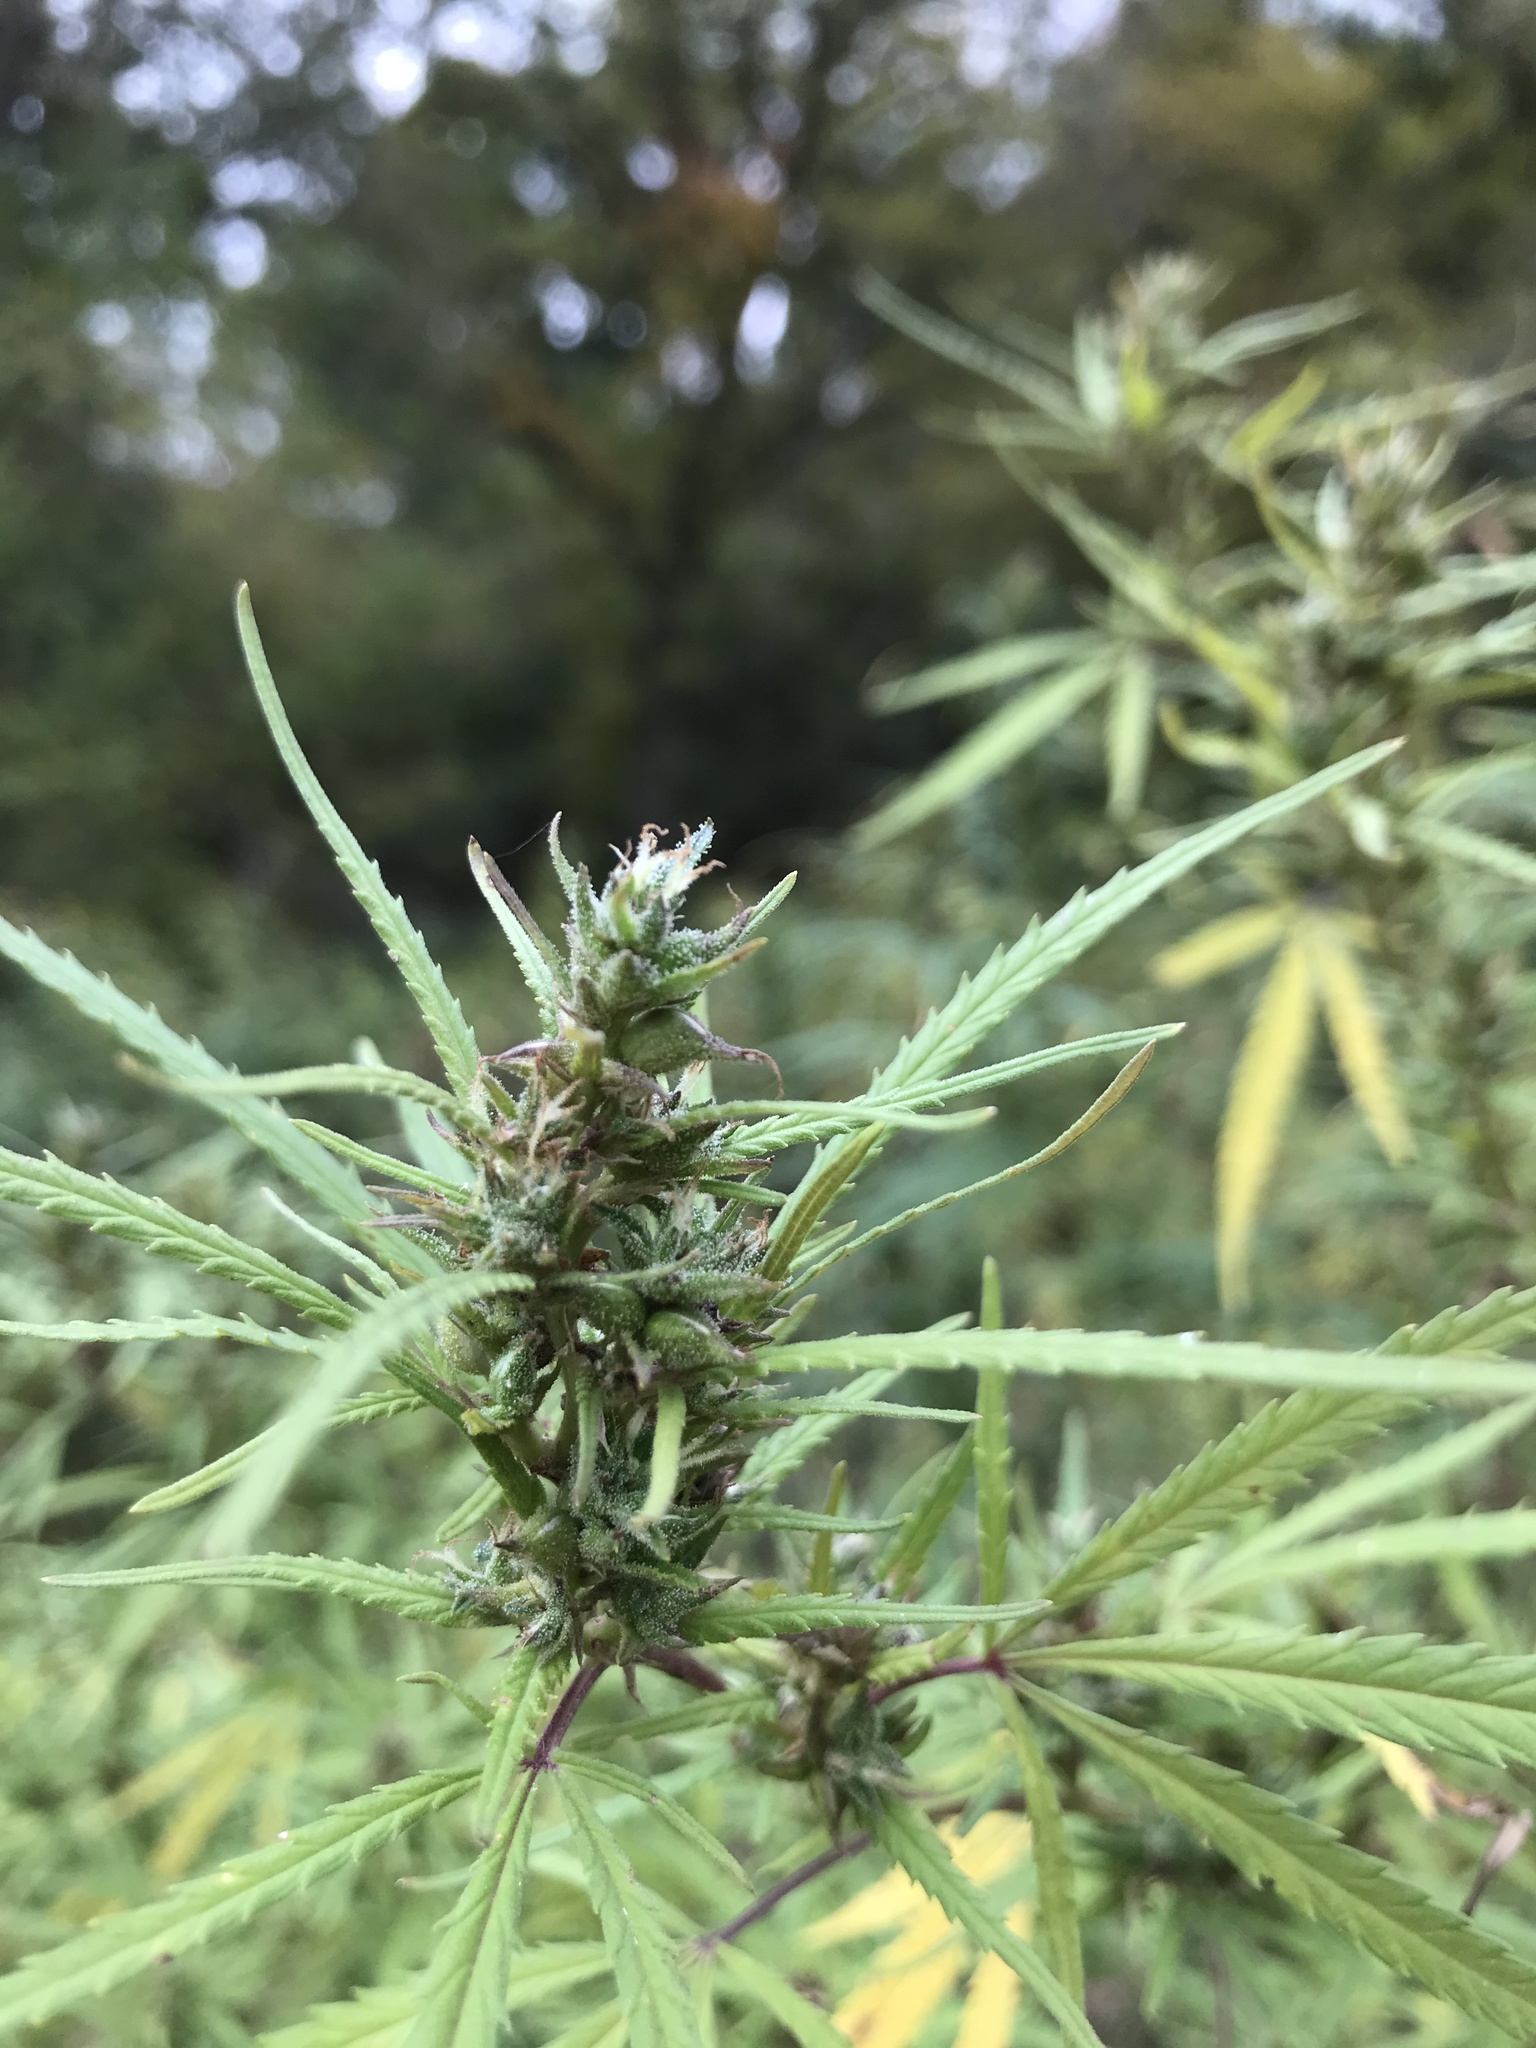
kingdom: Plantae
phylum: Tracheophyta
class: Magnoliopsida
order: Rosales
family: Cannabaceae
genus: Cannabis
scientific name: Cannabis sativa
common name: Hemp
